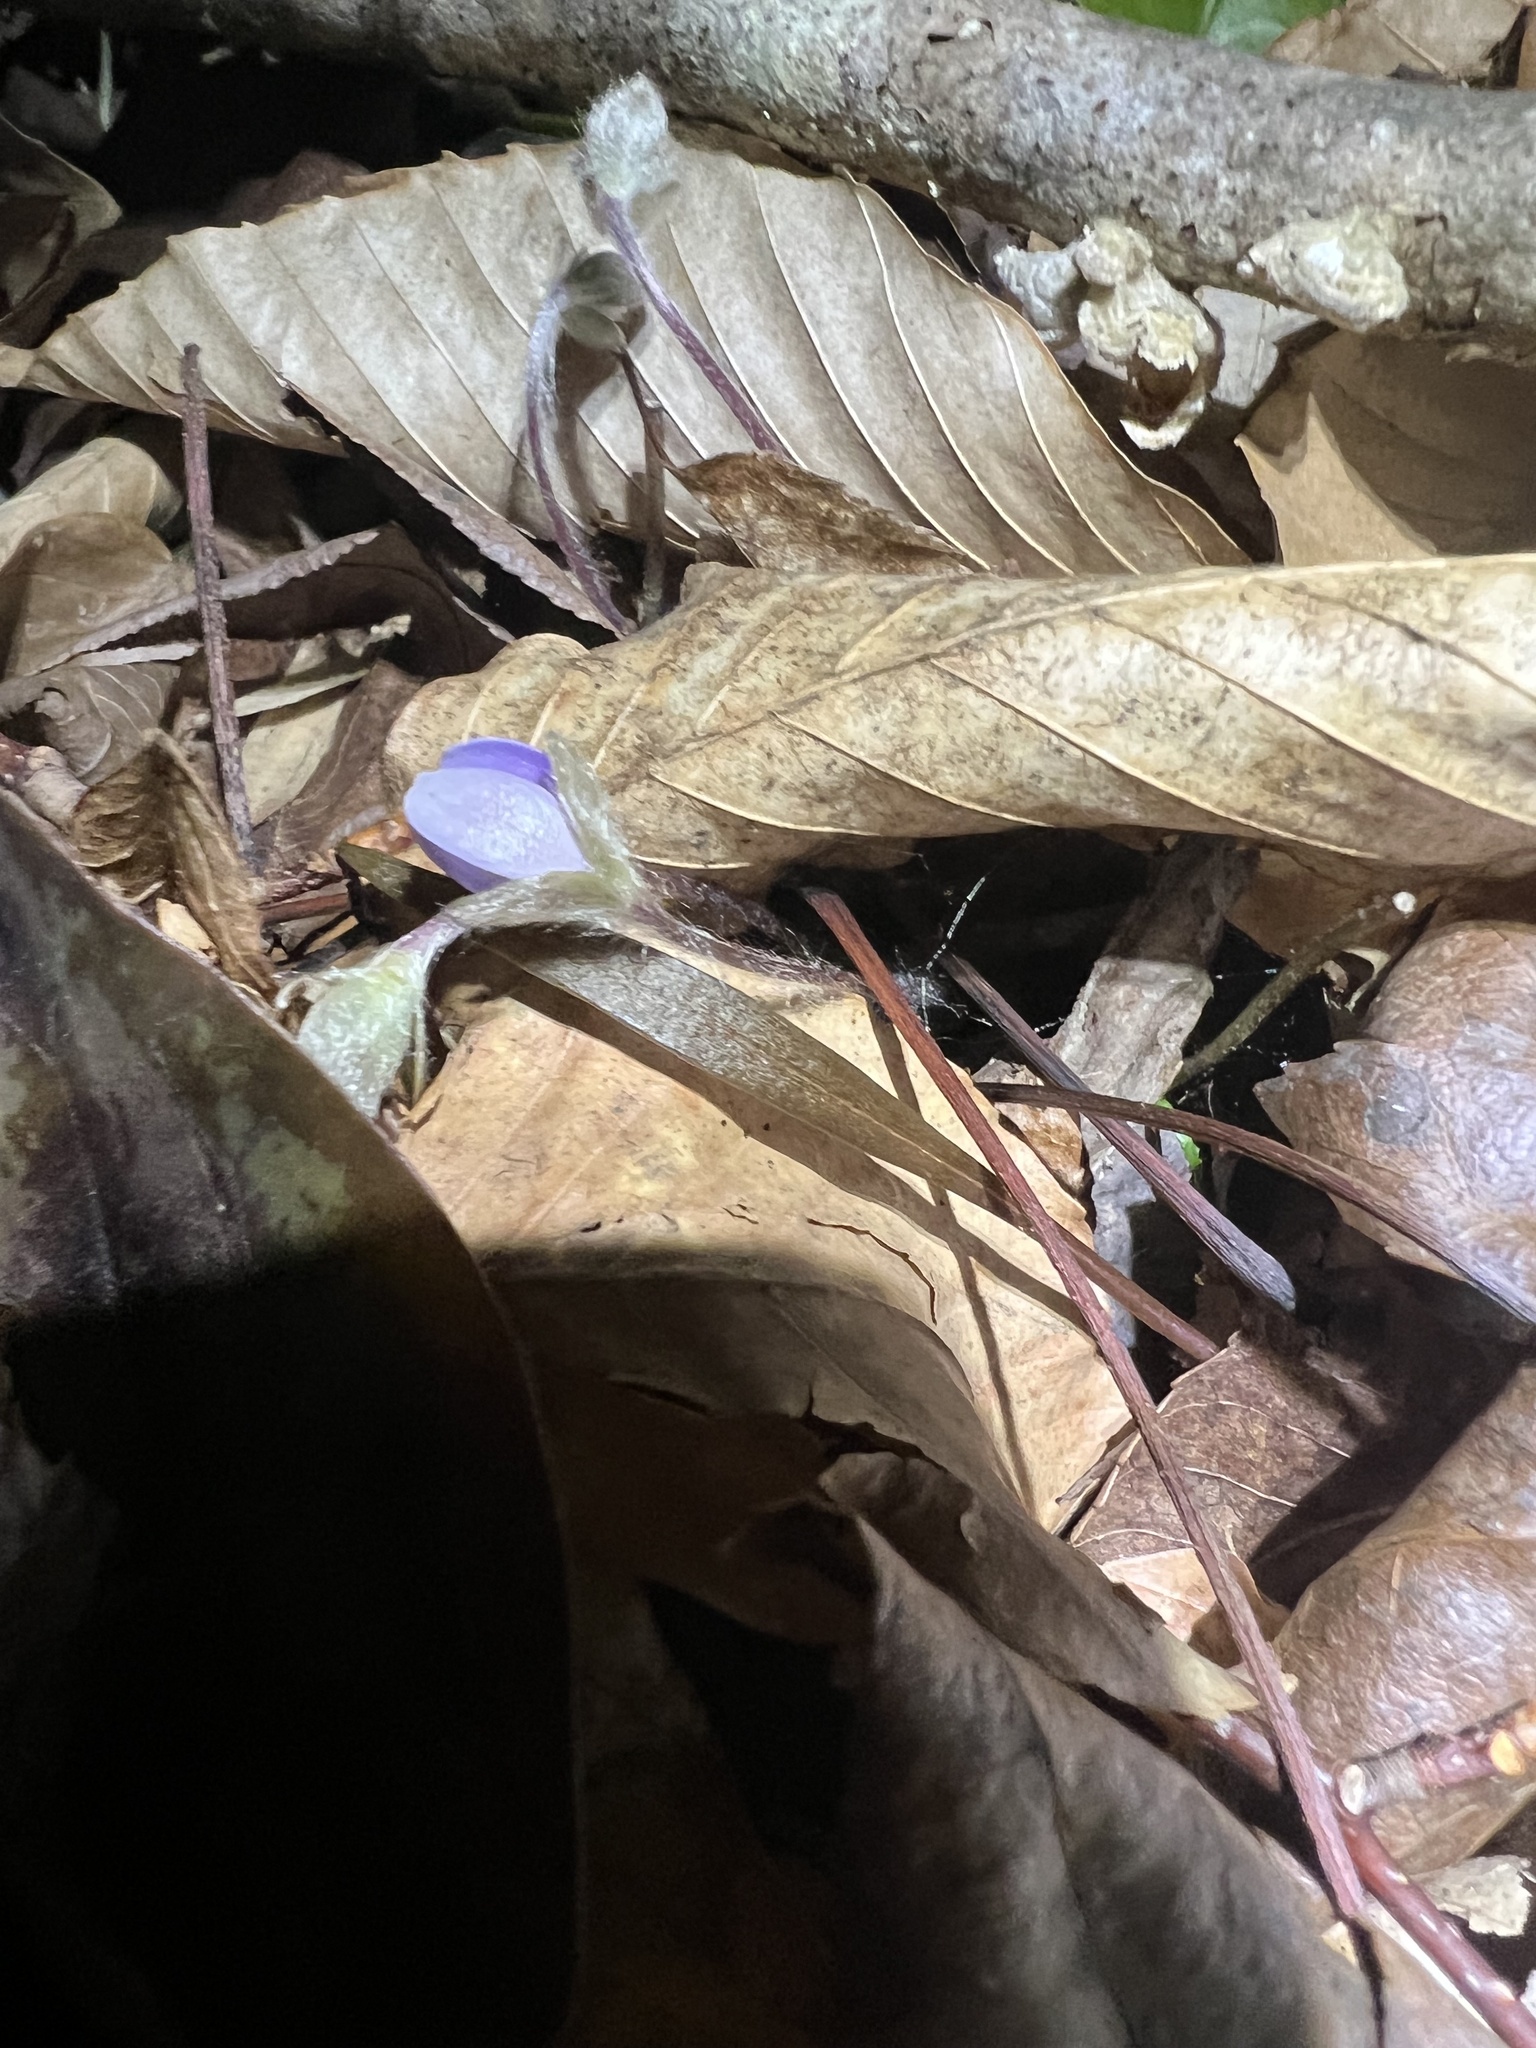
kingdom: Plantae
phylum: Tracheophyta
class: Magnoliopsida
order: Ranunculales
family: Ranunculaceae
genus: Hepatica
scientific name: Hepatica americana
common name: American hepatica
